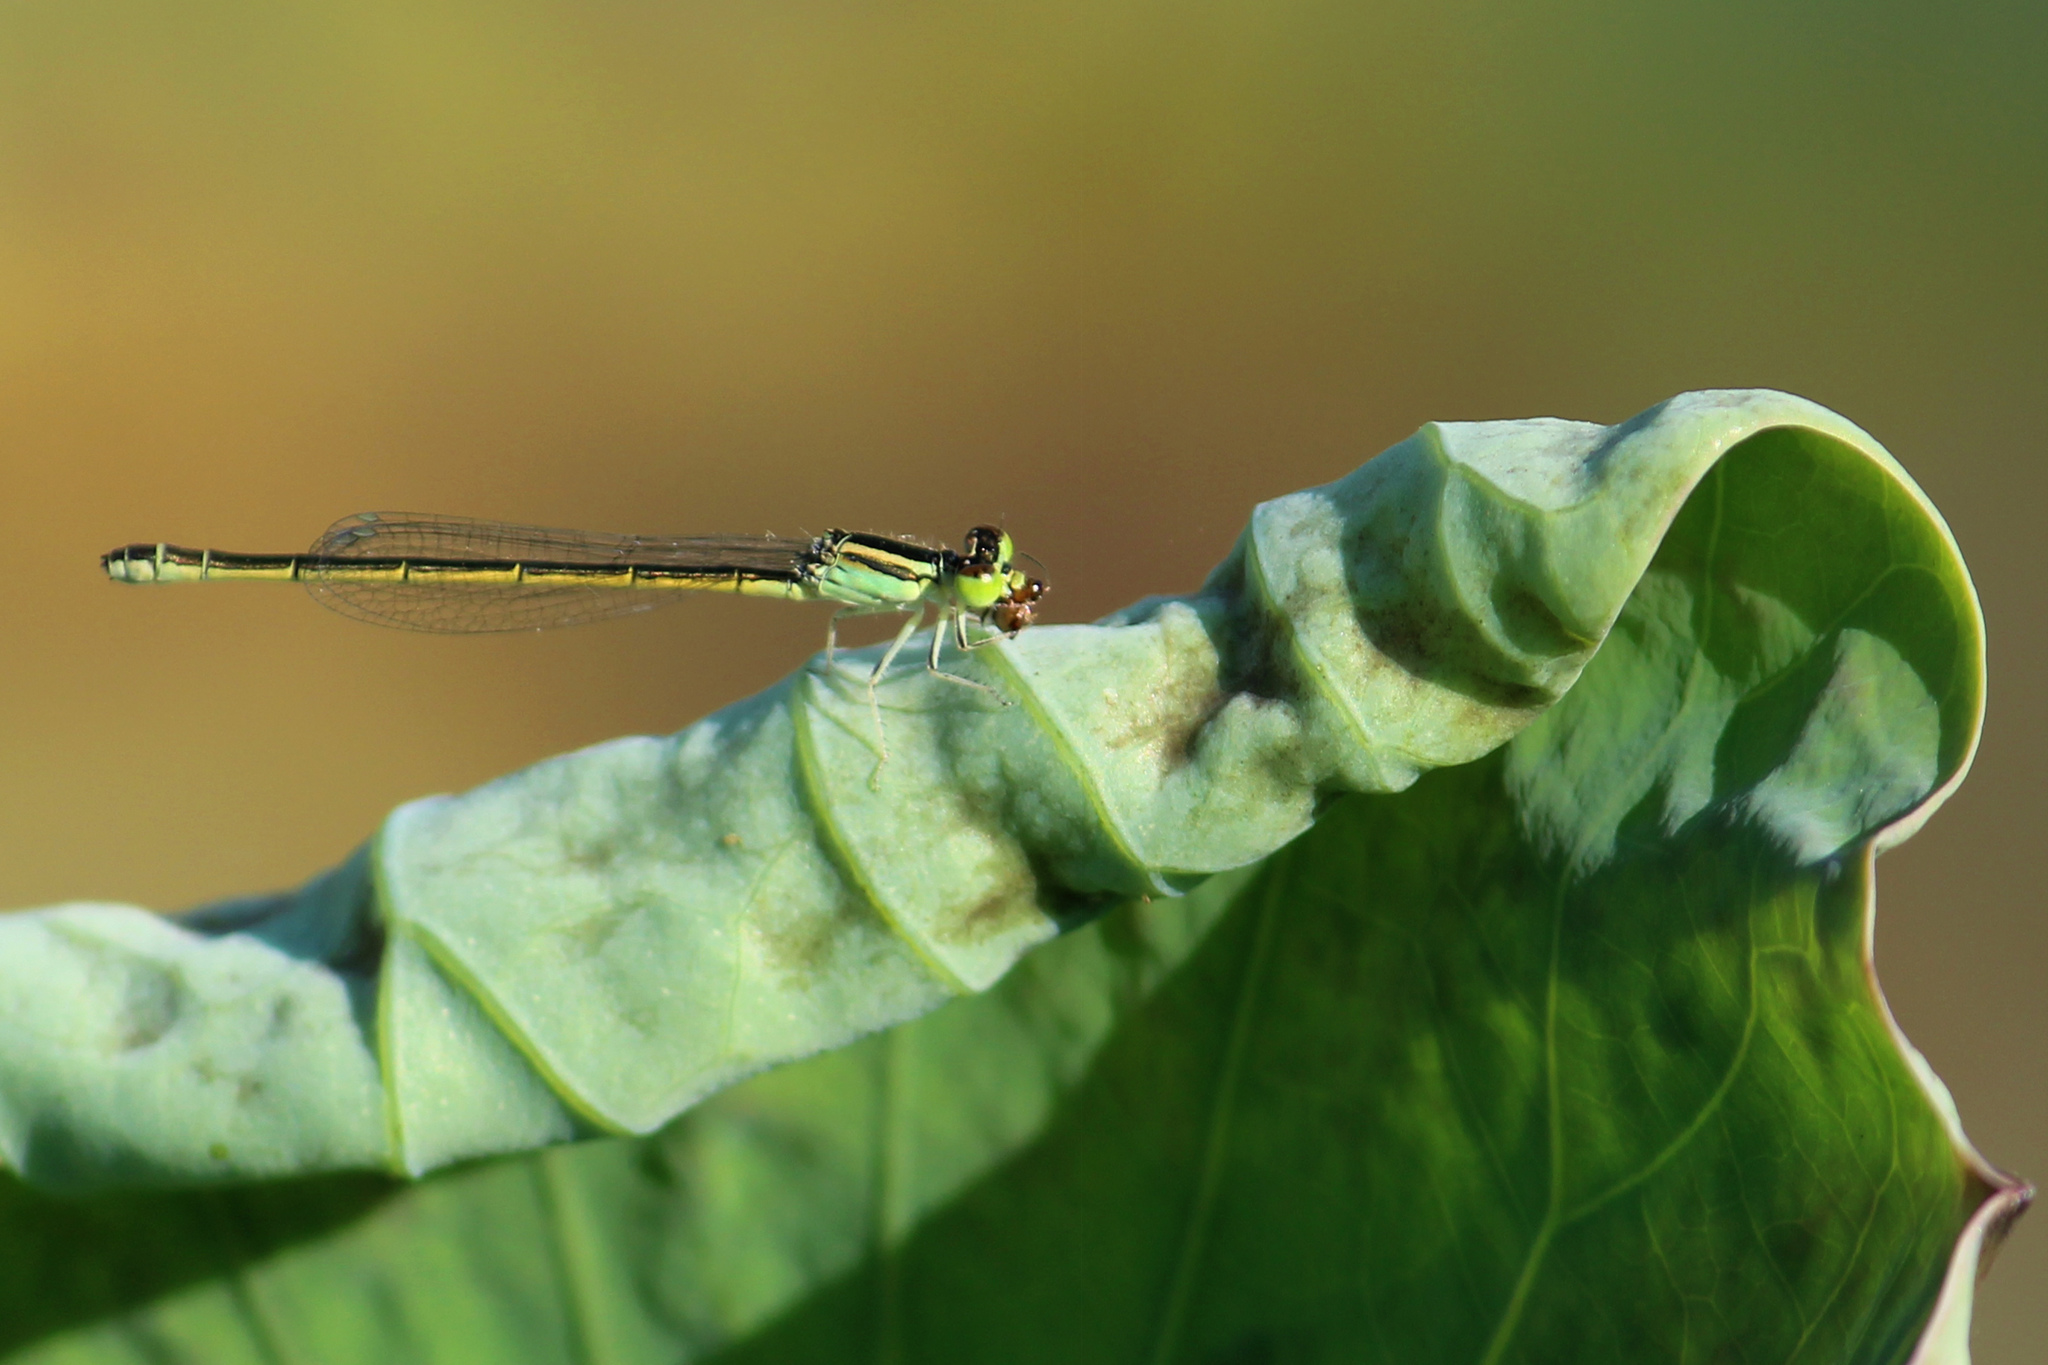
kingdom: Animalia
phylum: Arthropoda
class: Insecta
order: Odonata
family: Coenagrionidae
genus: Ischnura
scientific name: Ischnura rubilio
